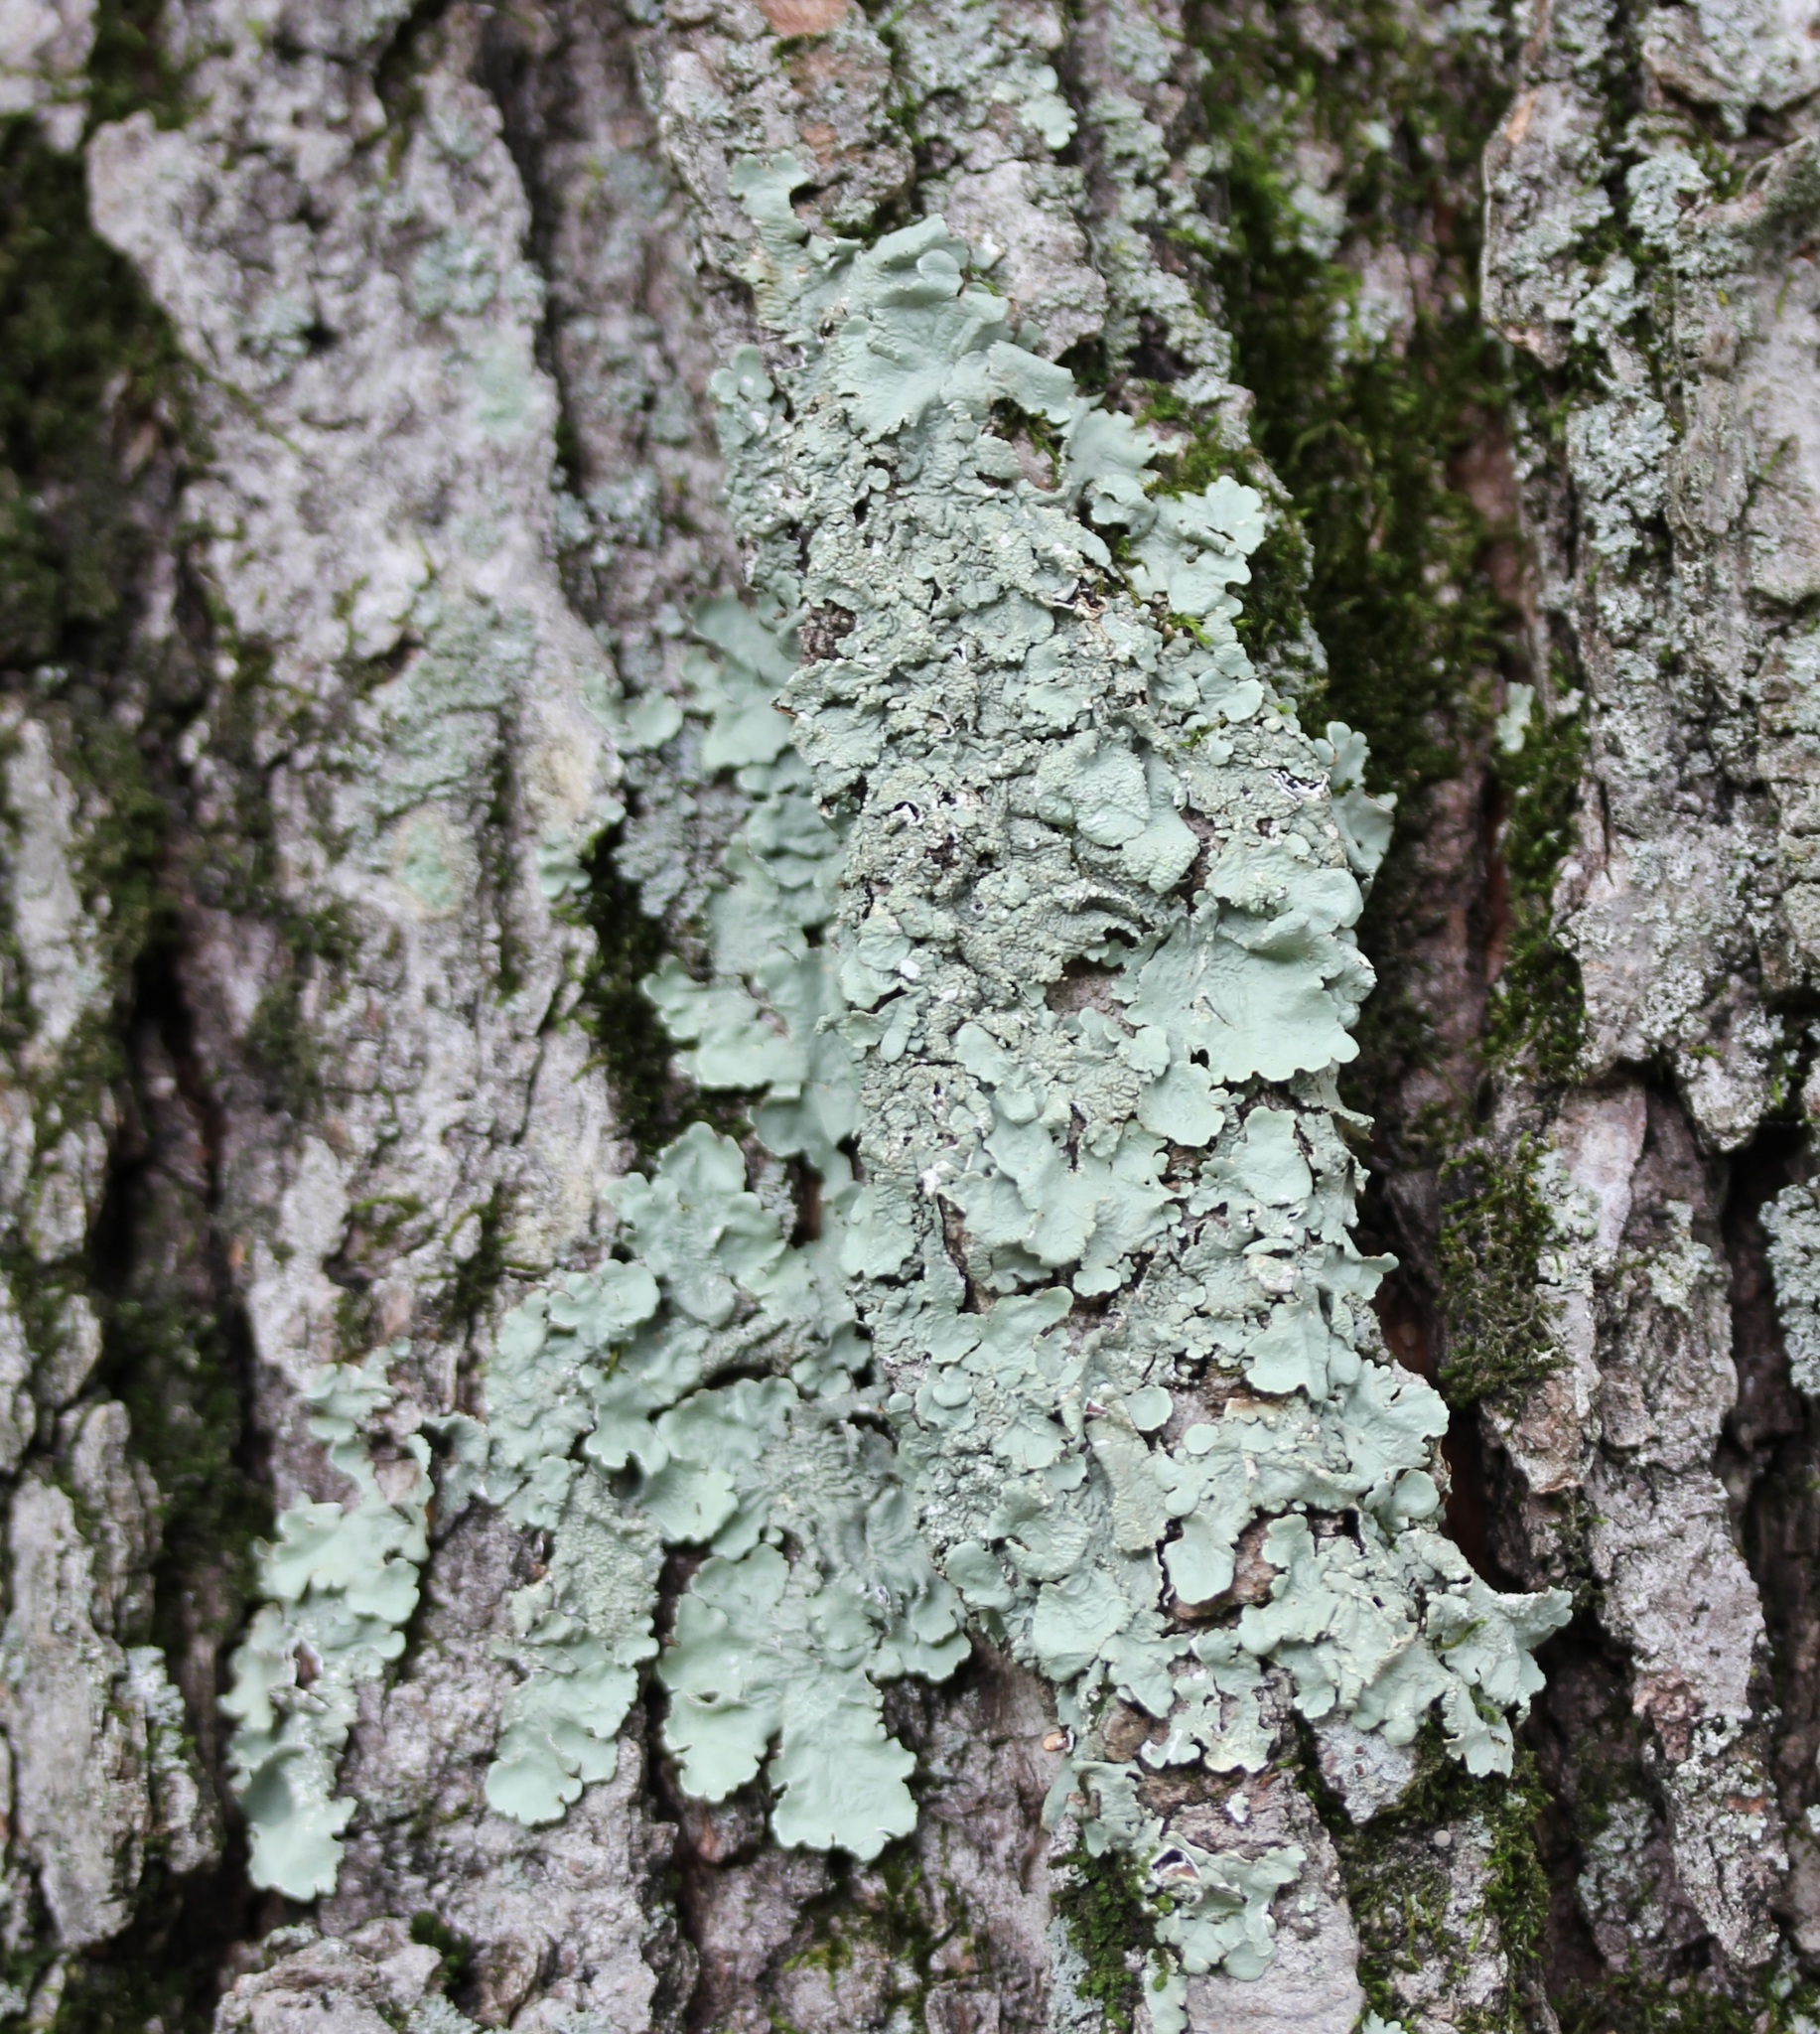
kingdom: Fungi
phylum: Ascomycota
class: Lecanoromycetes
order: Lecanorales
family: Parmeliaceae
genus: Flavoparmelia
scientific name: Flavoparmelia caperata
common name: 40-mile per hour lichen
